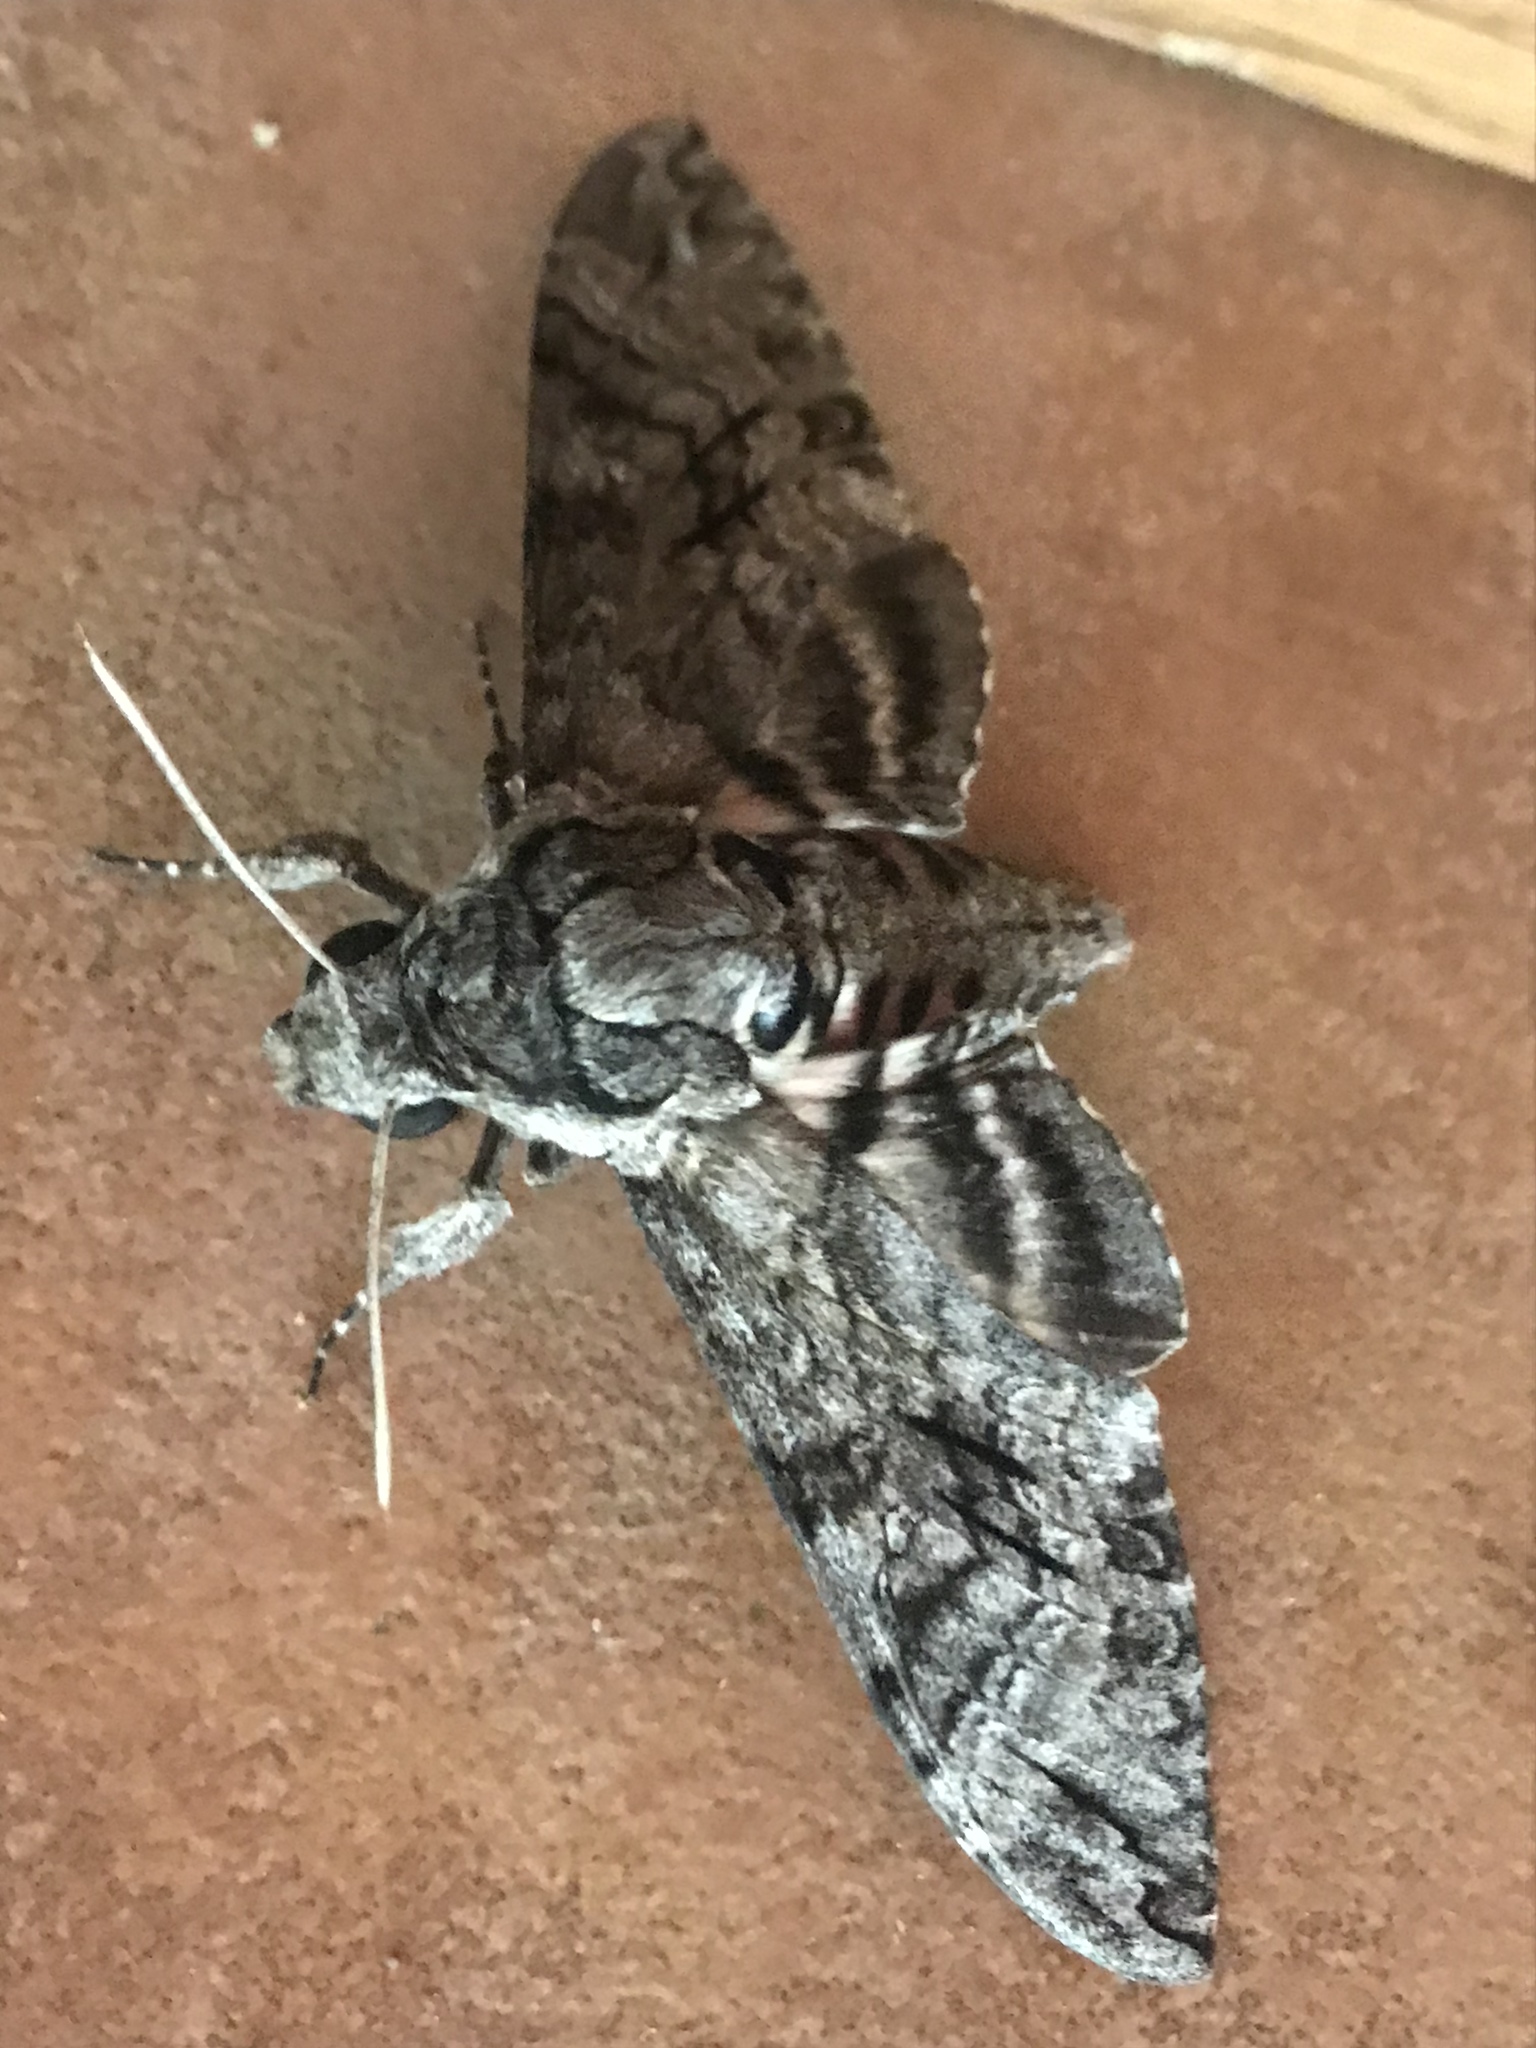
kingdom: Animalia
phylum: Arthropoda
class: Insecta
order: Lepidoptera
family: Sphingidae
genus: Agrius
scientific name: Agrius cingulata
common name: Pink-spotted hawkmoth
